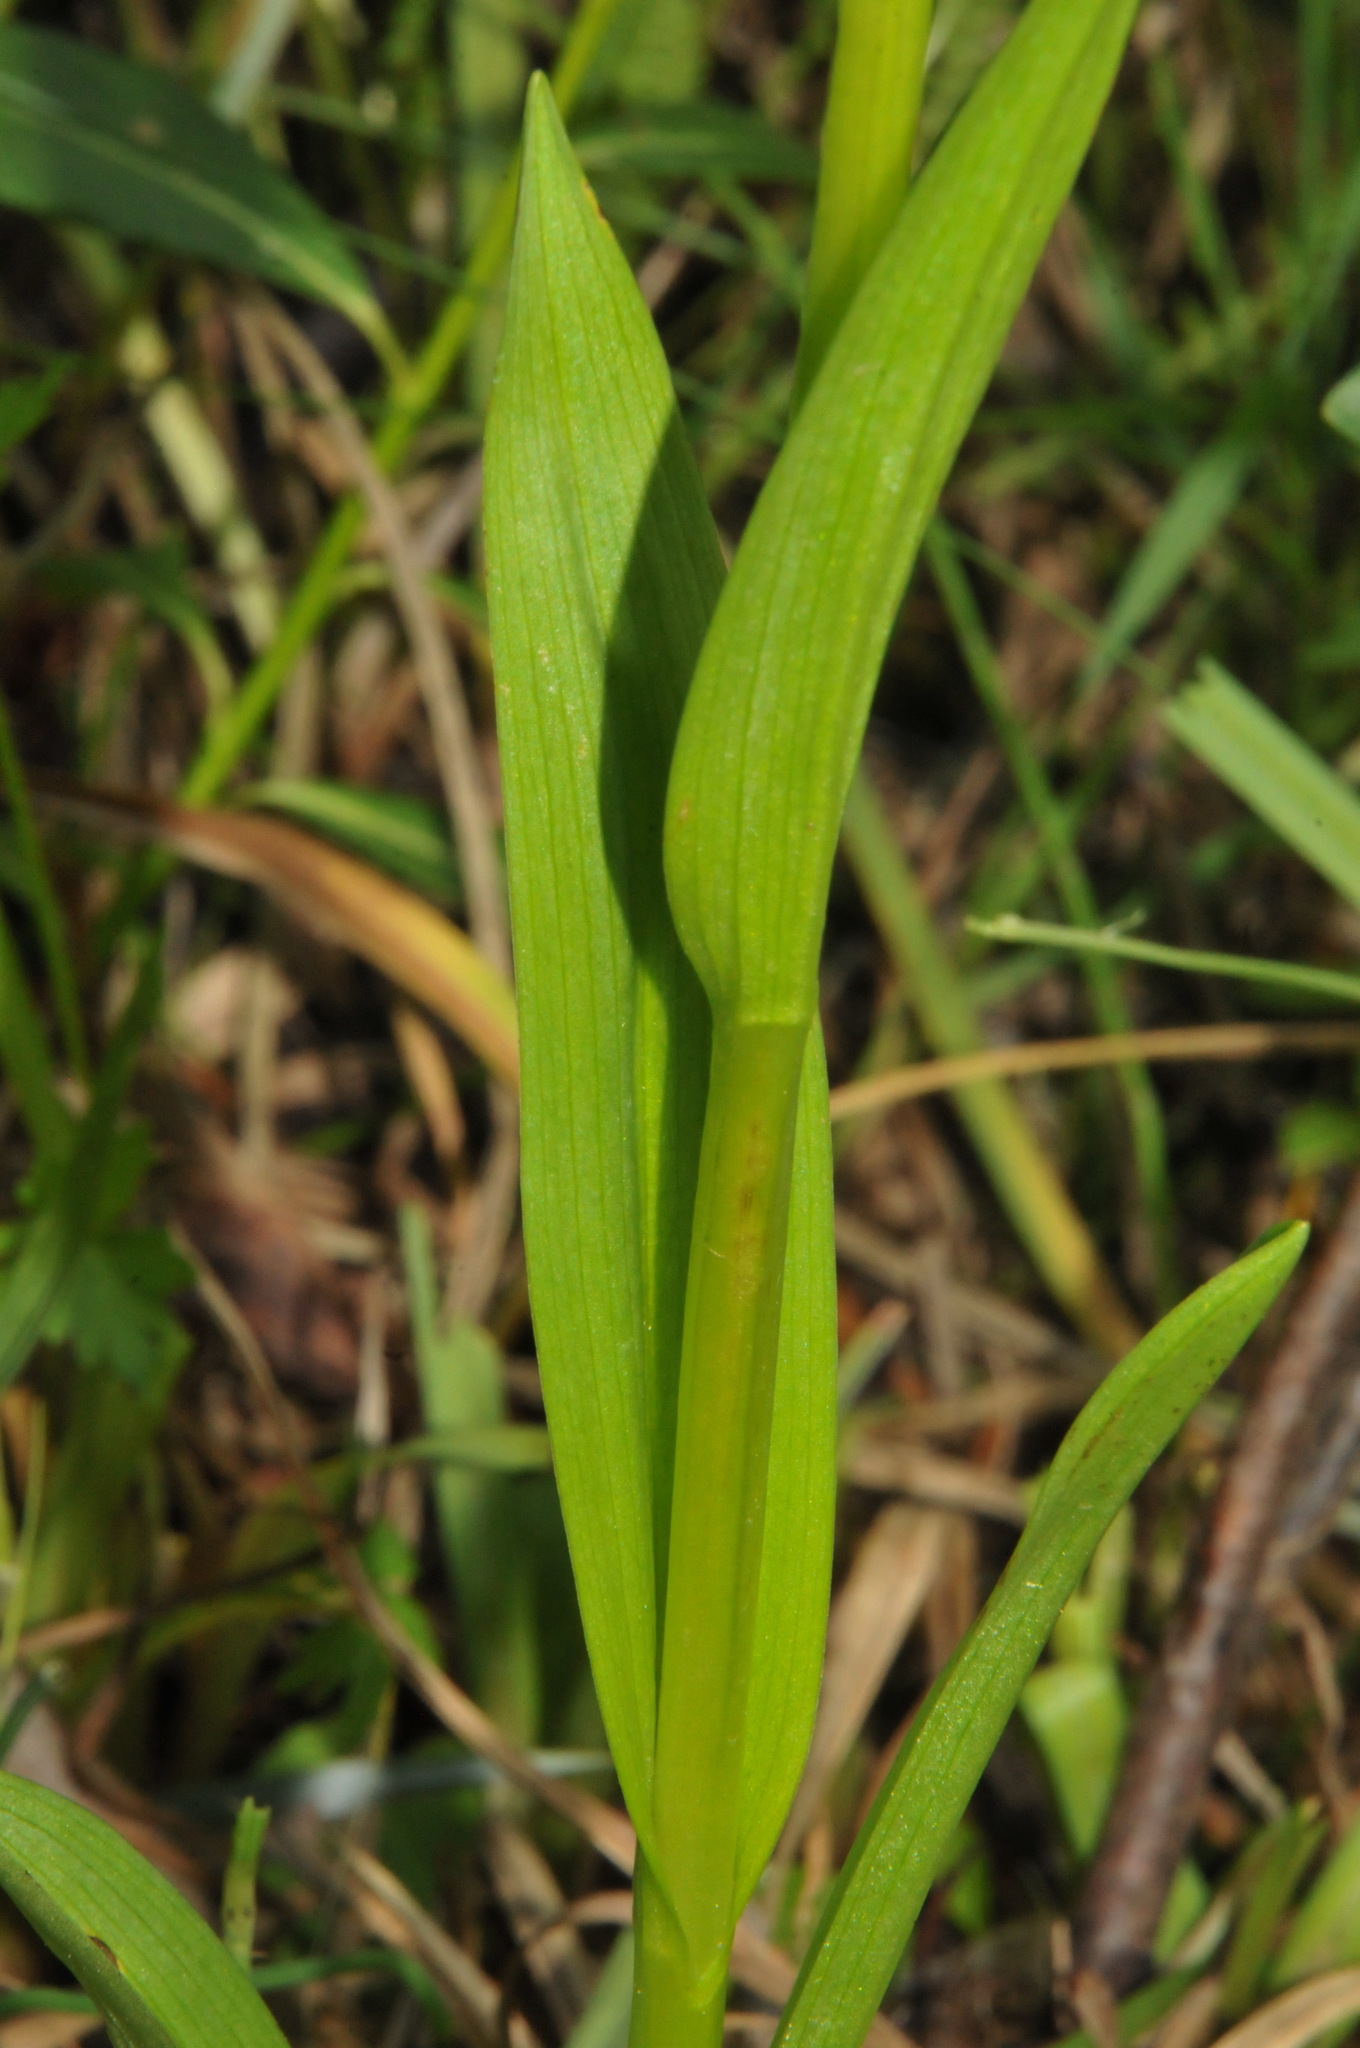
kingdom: Plantae
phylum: Tracheophyta
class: Liliopsida
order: Asparagales
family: Orchidaceae
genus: Platanthera
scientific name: Platanthera dilatata
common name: Bog candles
